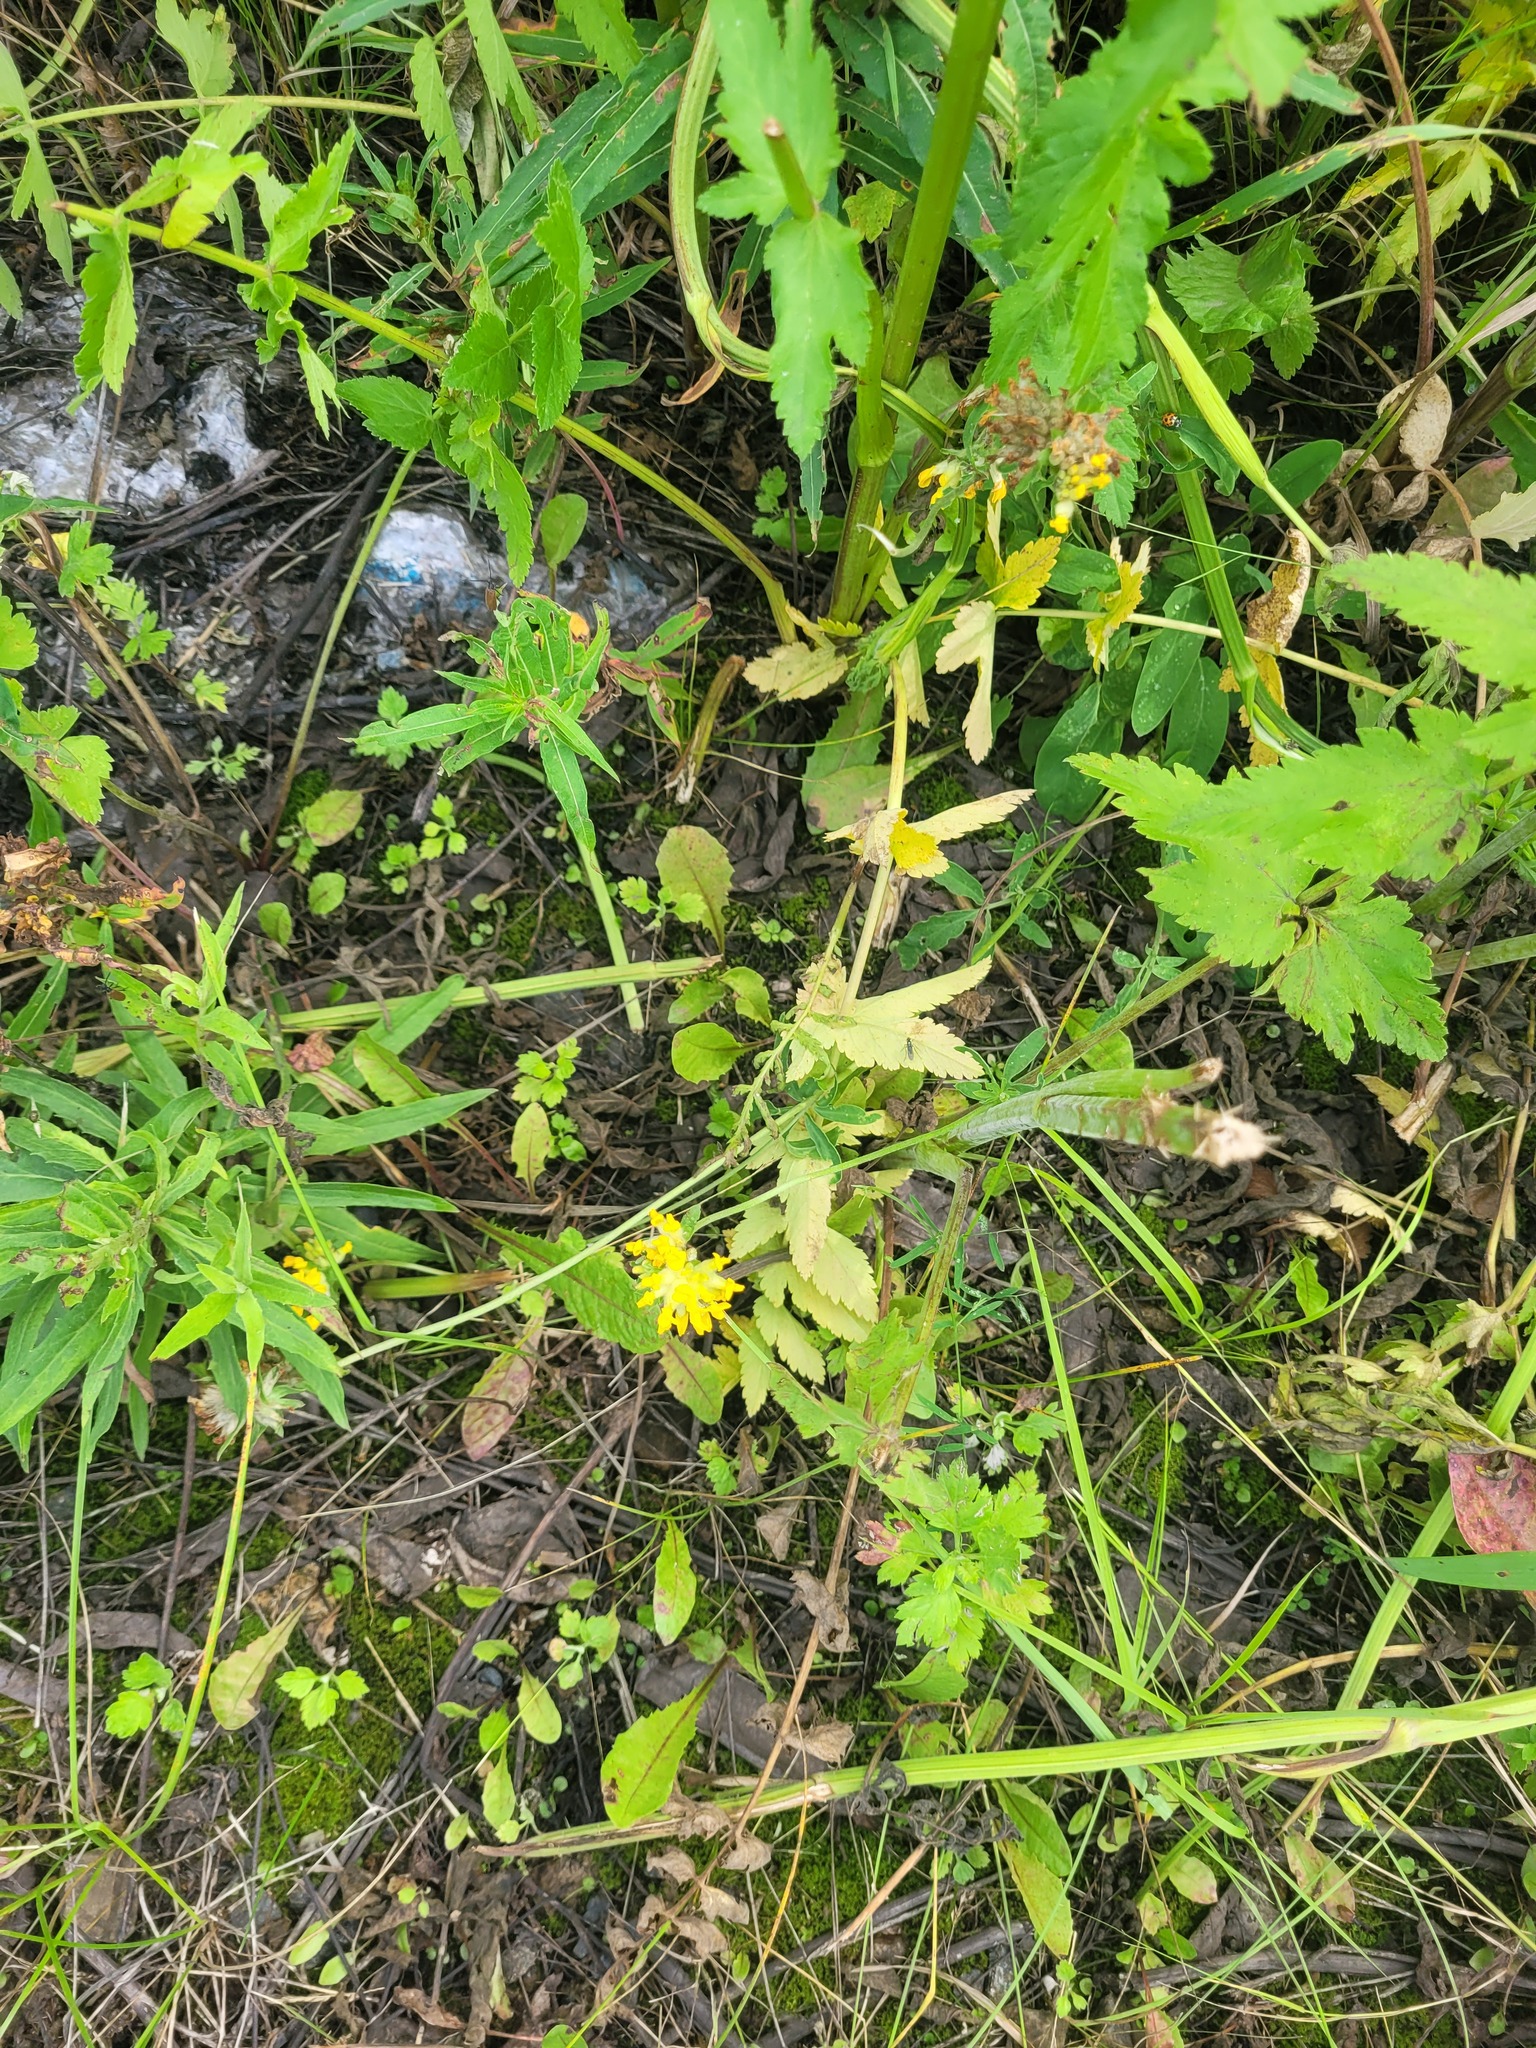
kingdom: Plantae
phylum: Tracheophyta
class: Magnoliopsida
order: Fabales
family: Fabaceae
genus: Anthyllis
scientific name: Anthyllis vulneraria
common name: Kidney vetch
